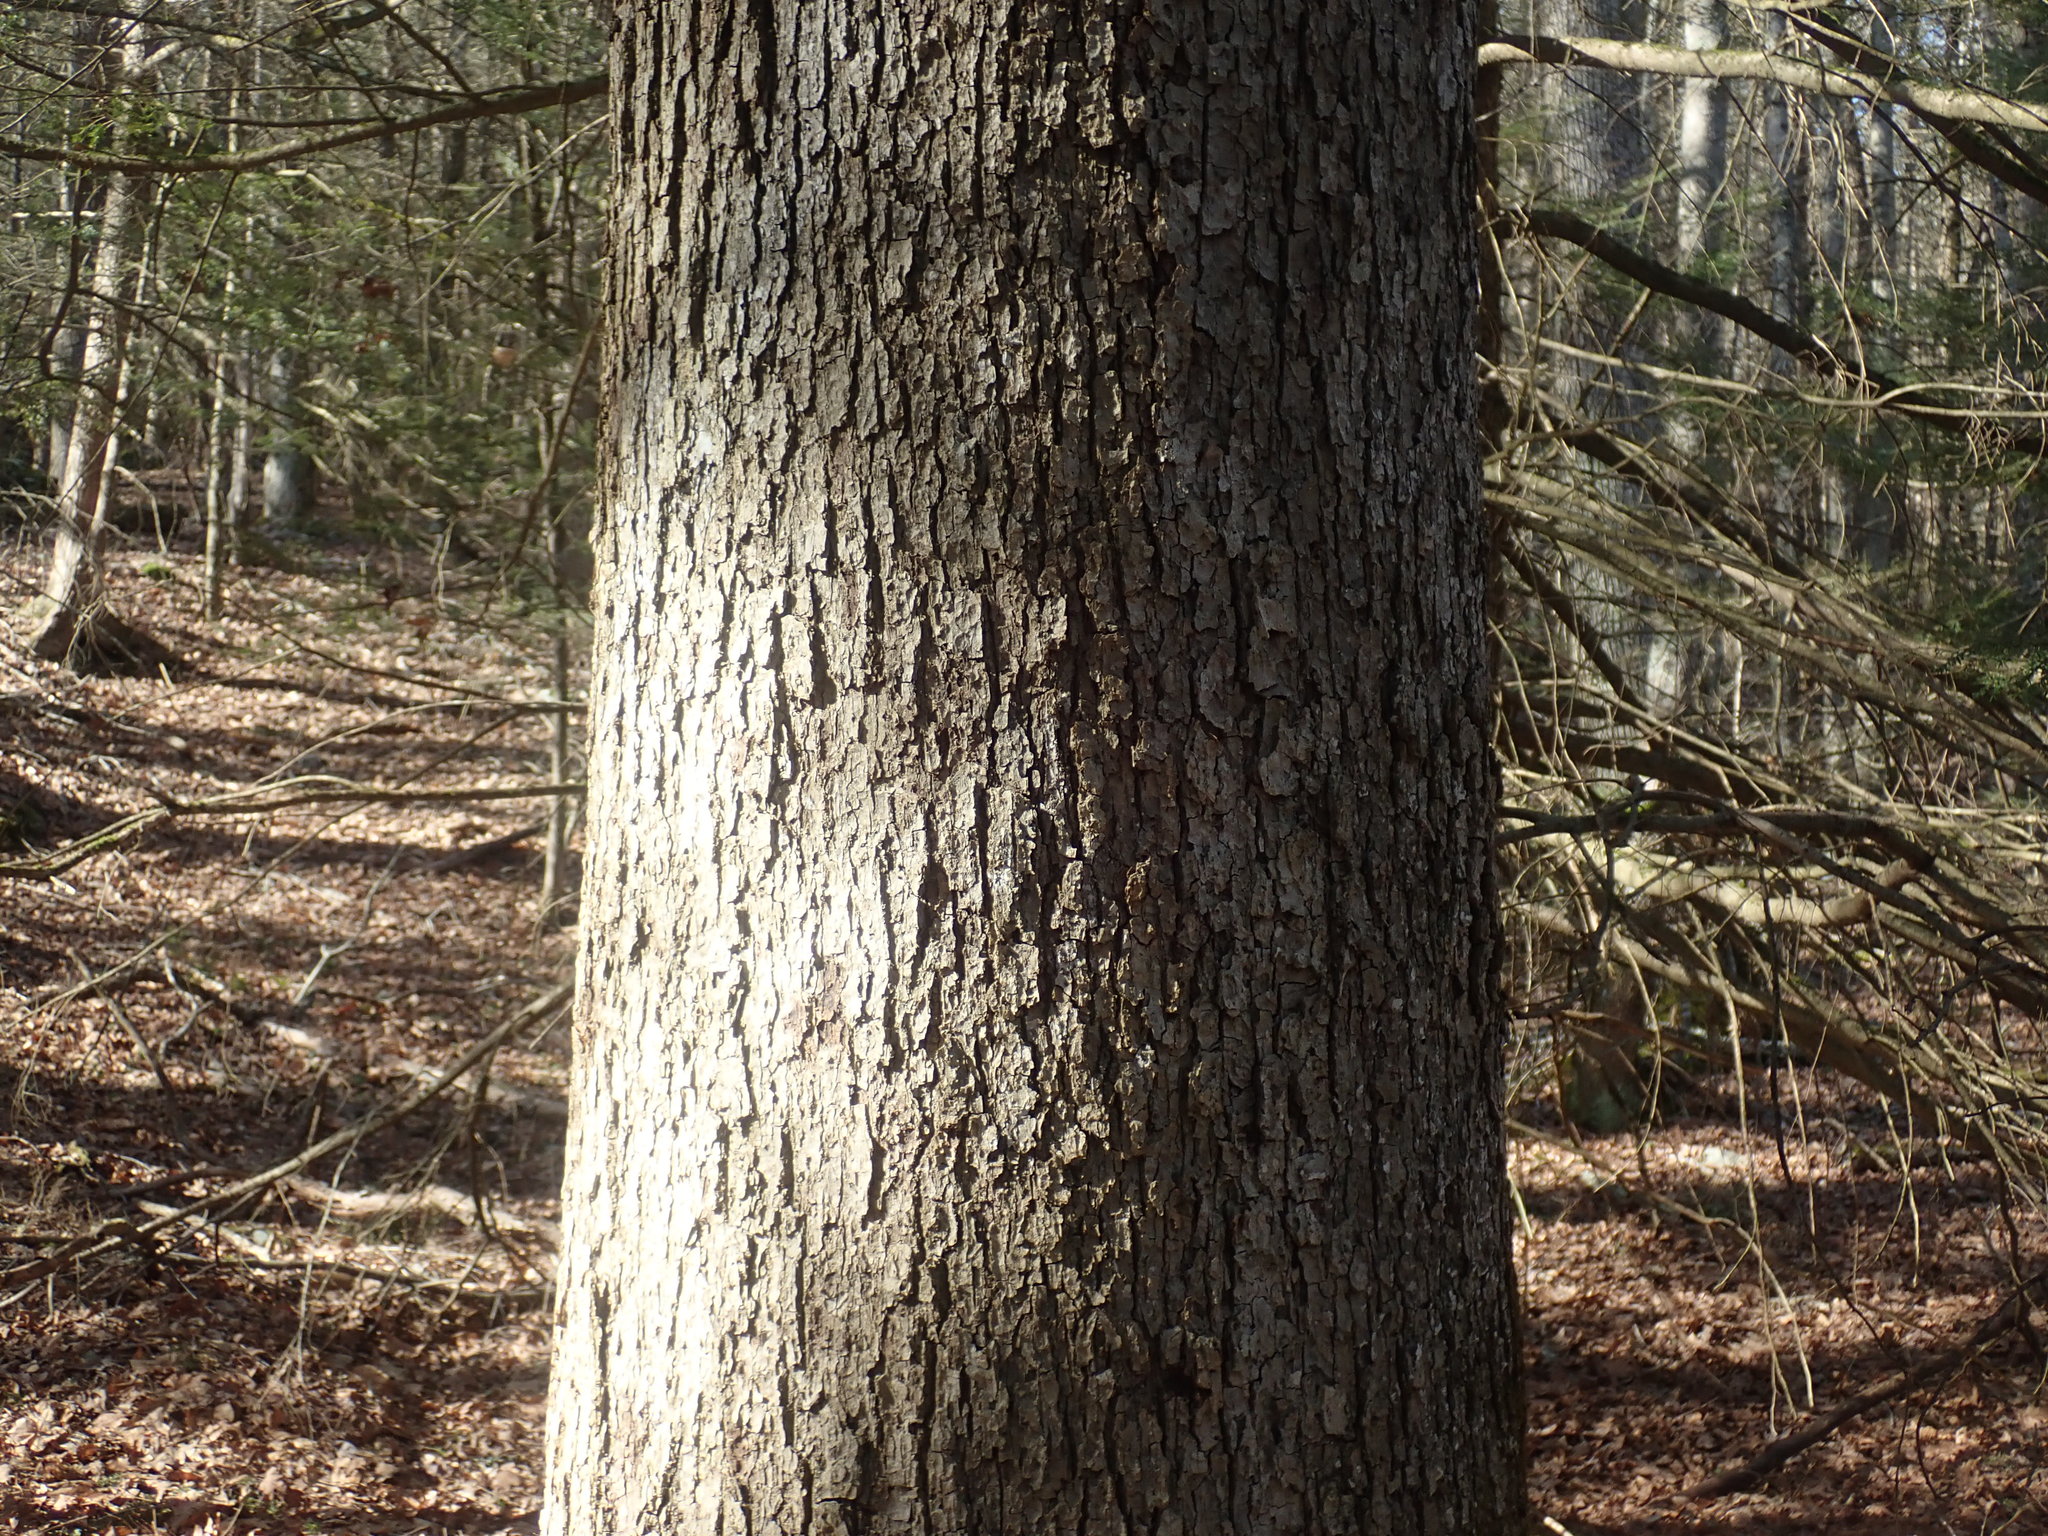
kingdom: Plantae
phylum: Tracheophyta
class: Magnoliopsida
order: Fagales
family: Fagaceae
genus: Quercus
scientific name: Quercus alba
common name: White oak
